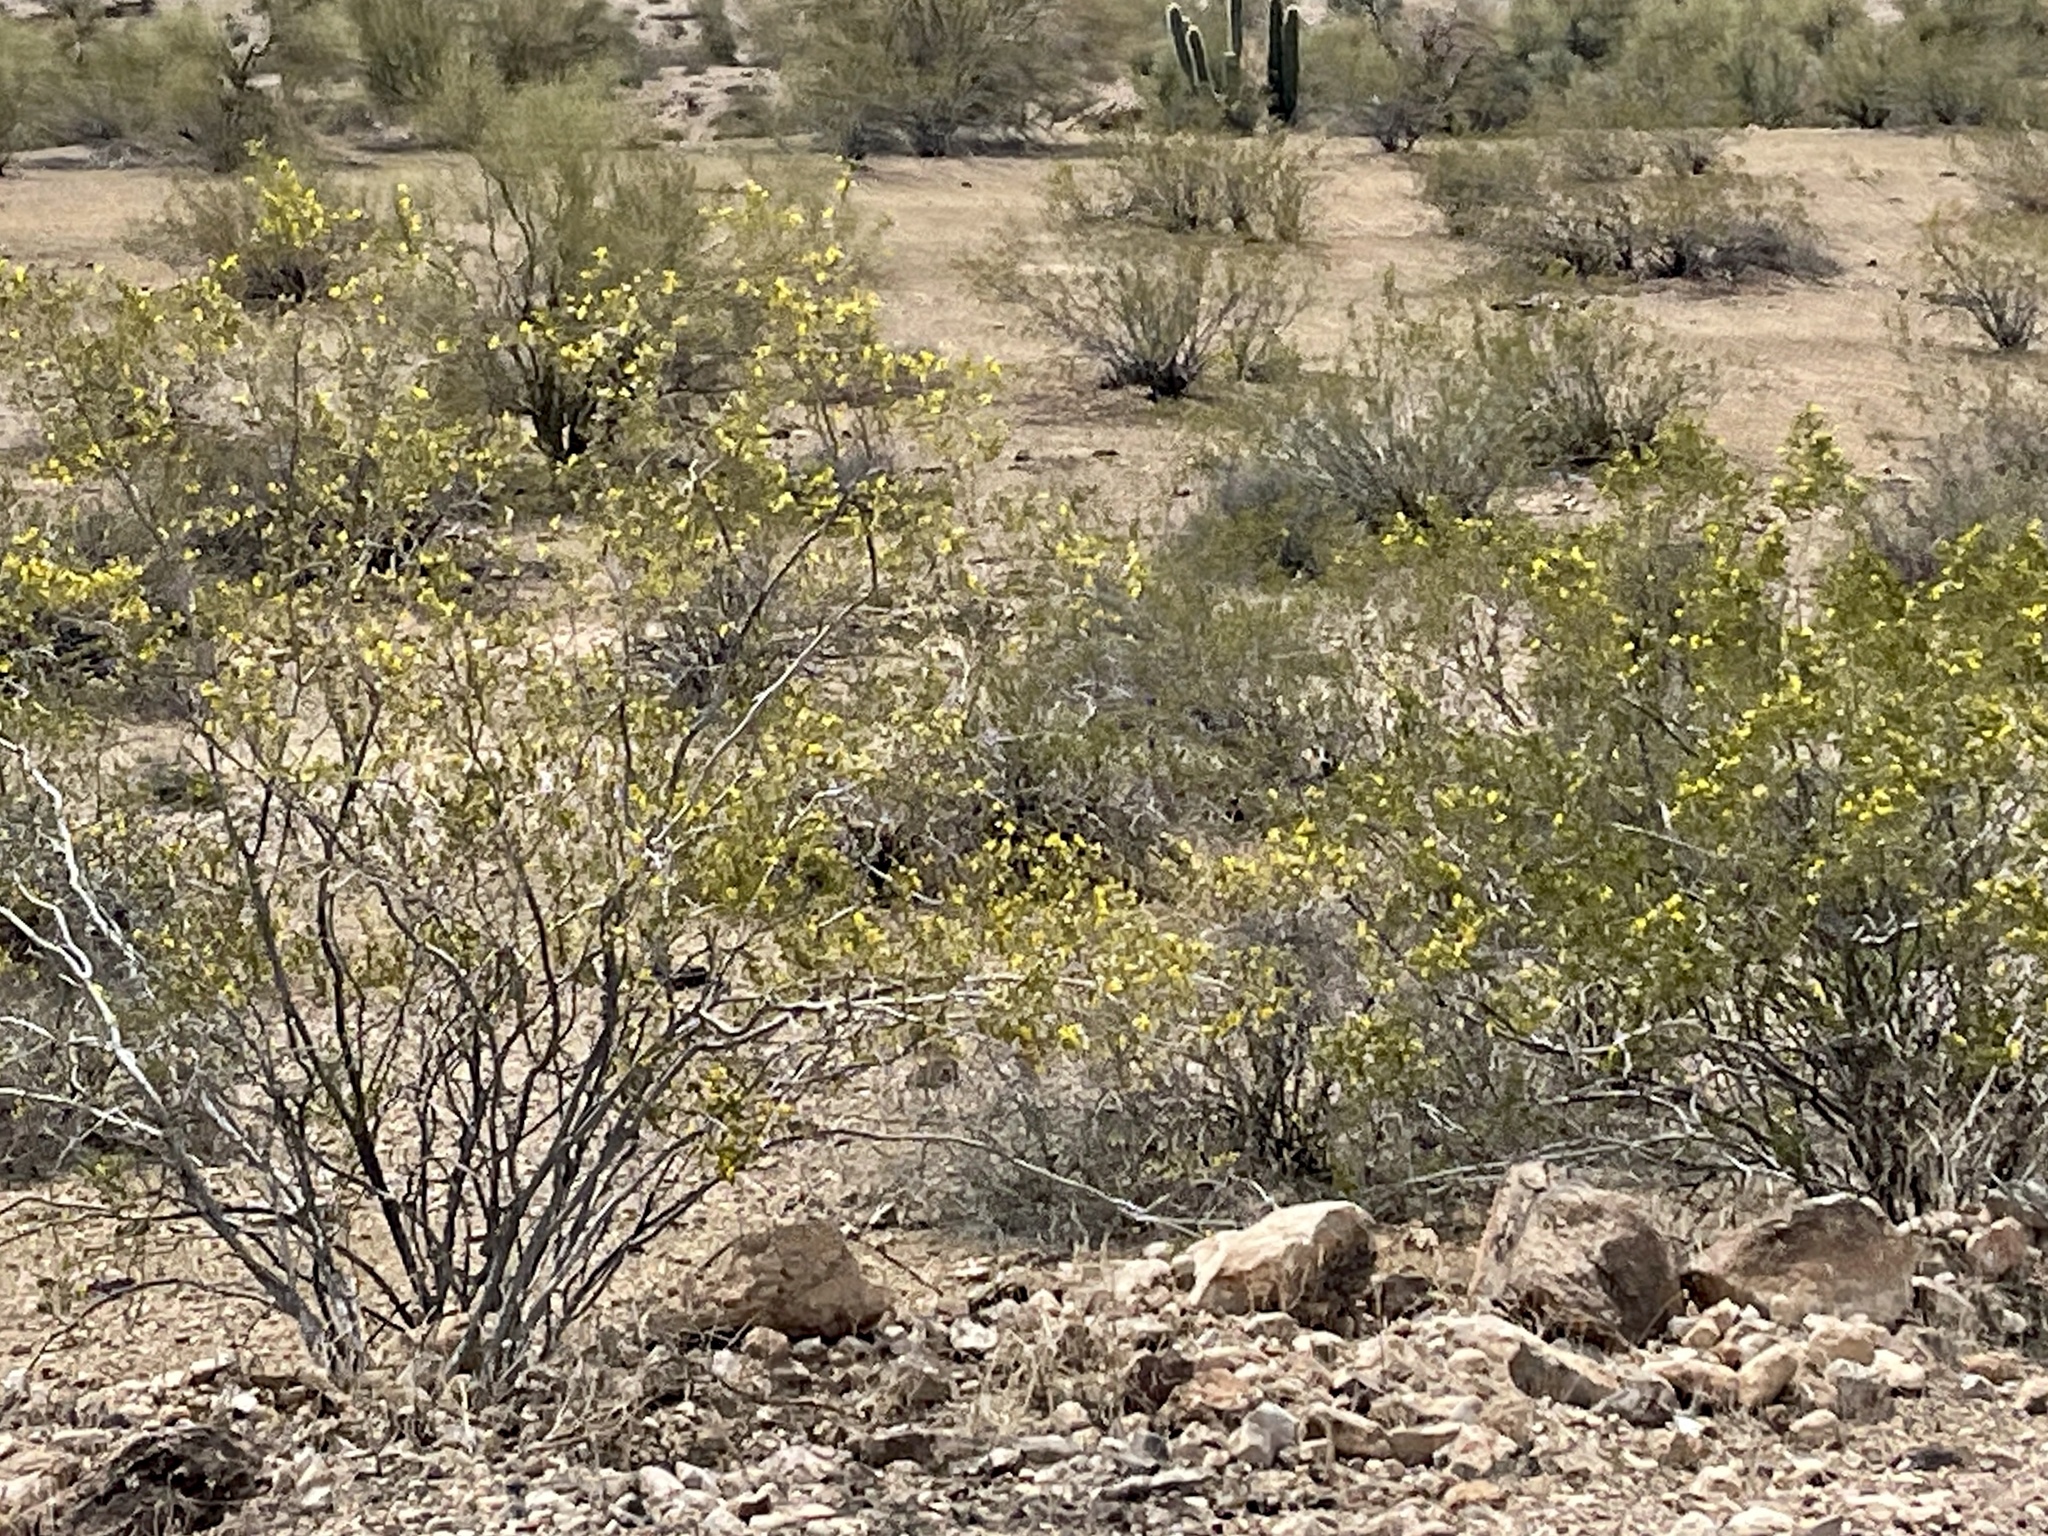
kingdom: Plantae
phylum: Tracheophyta
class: Magnoliopsida
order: Zygophyllales
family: Zygophyllaceae
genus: Larrea
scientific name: Larrea tridentata
